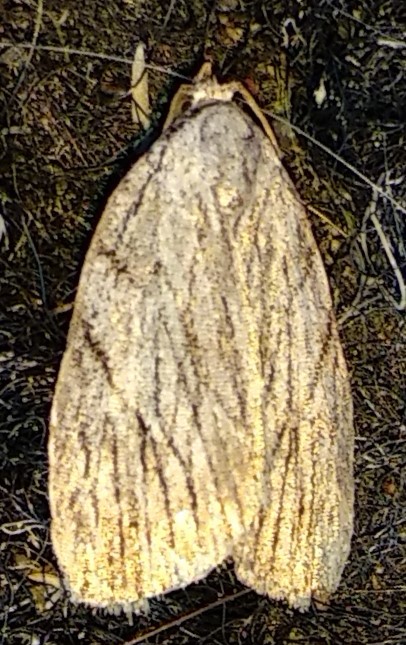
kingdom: Animalia
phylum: Arthropoda
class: Insecta
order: Lepidoptera
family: Noctuidae
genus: Balsa
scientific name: Balsa tristrigella
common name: Three-lined balsa moth
